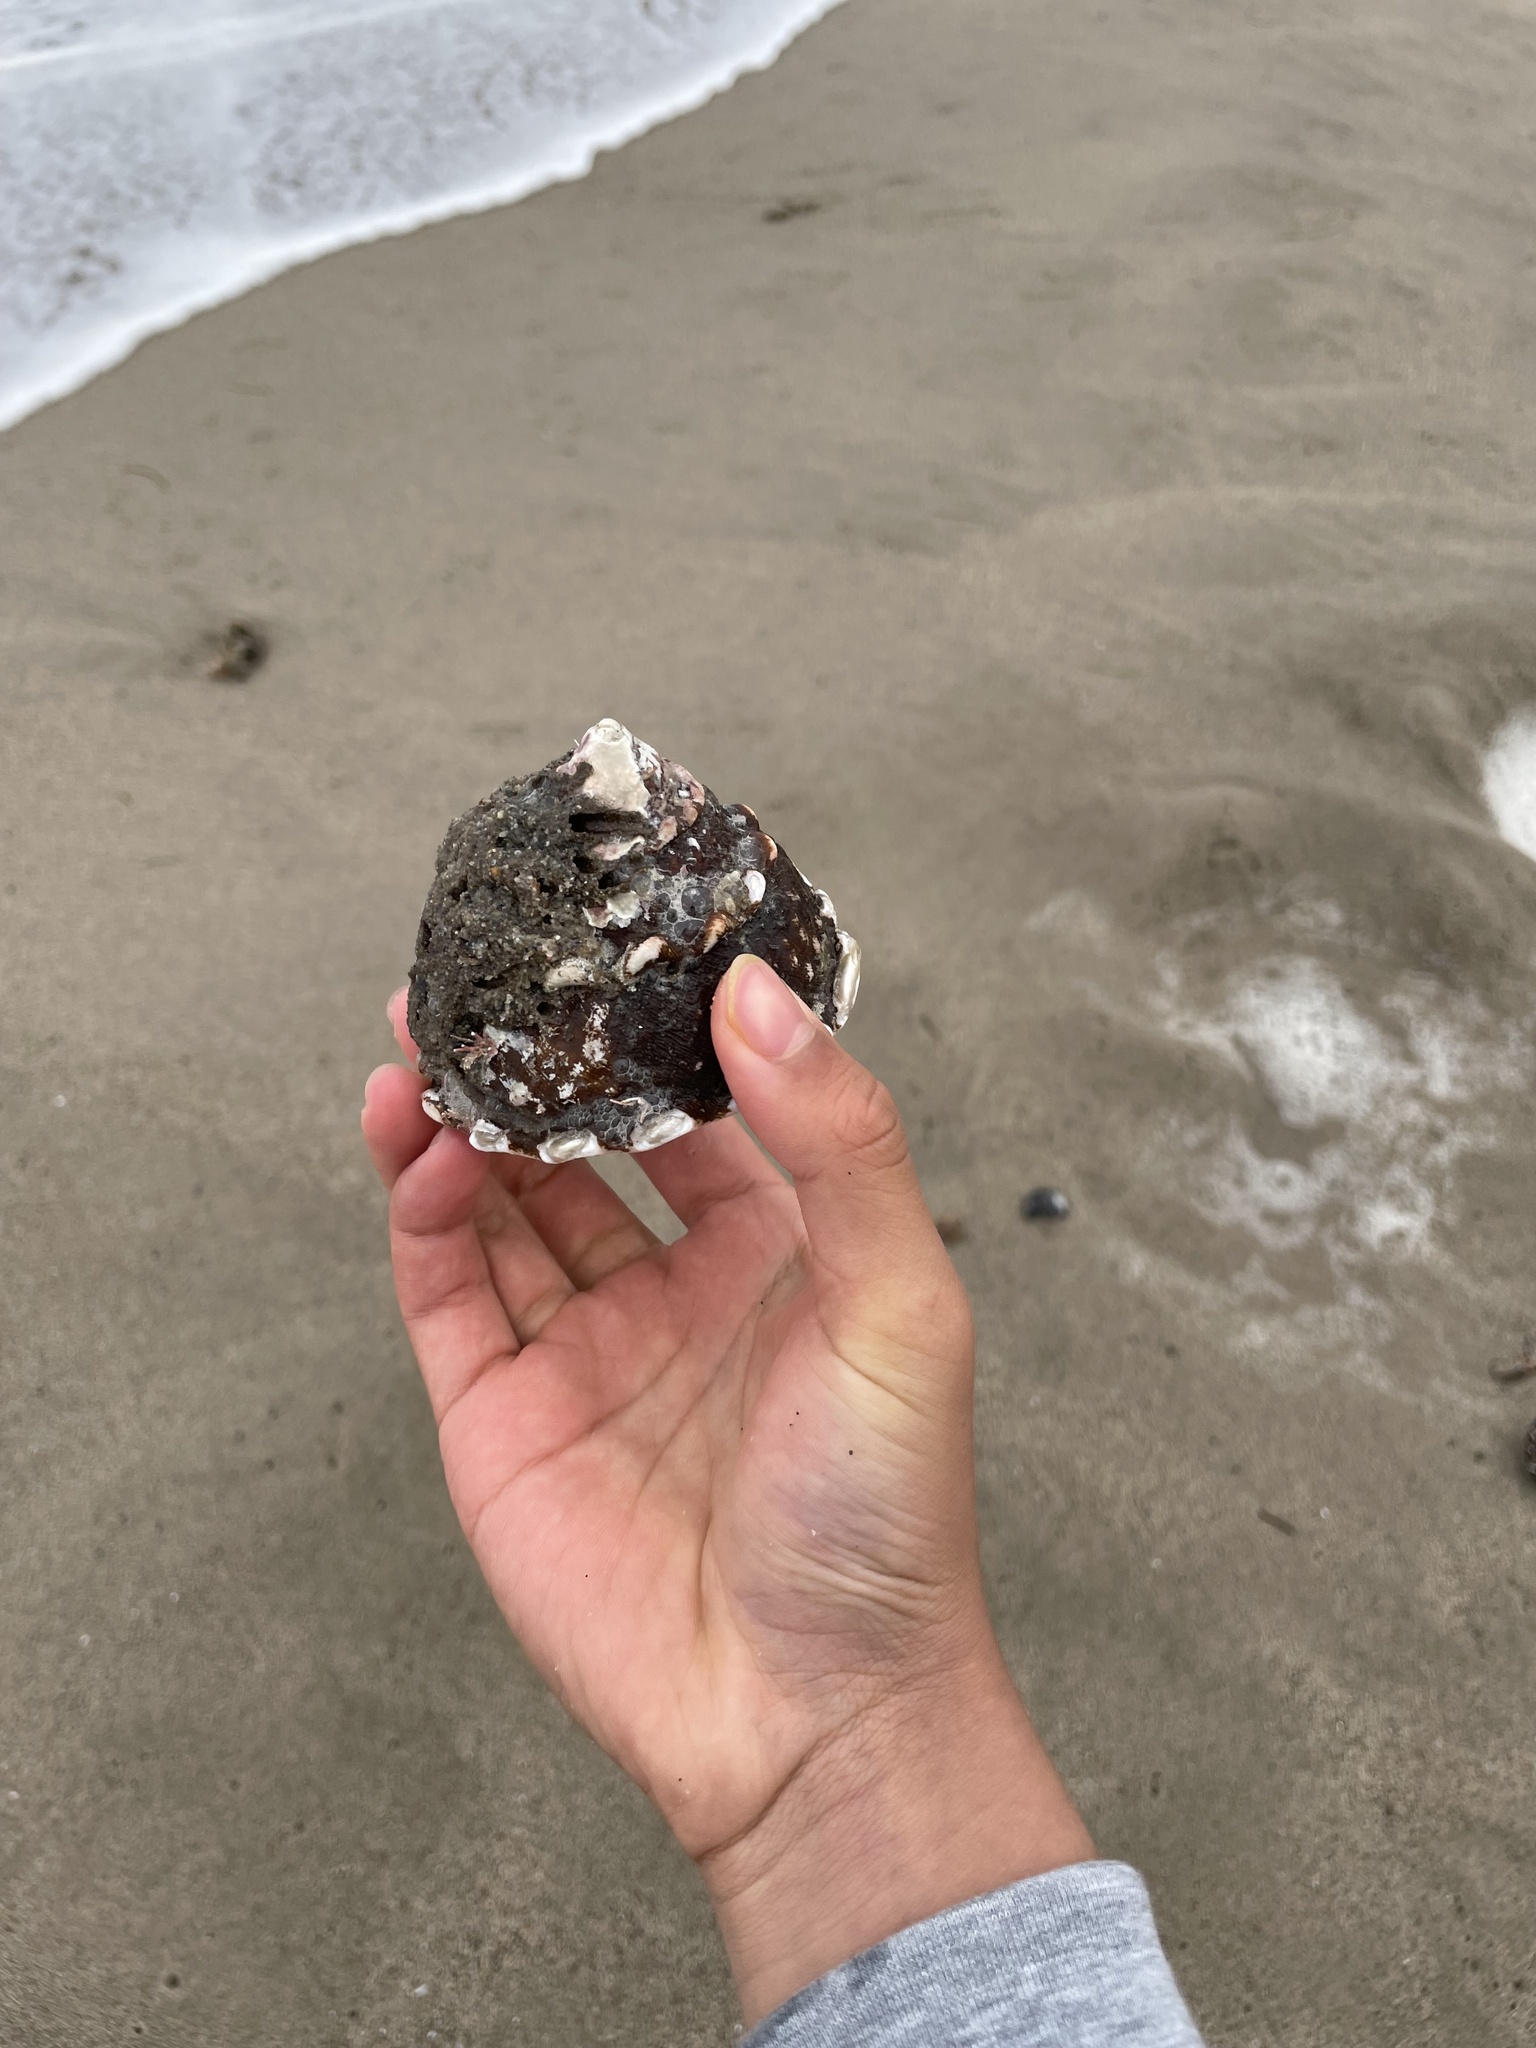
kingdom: Animalia
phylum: Mollusca
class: Gastropoda
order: Trochida
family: Turbinidae
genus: Megastraea
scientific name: Megastraea undosa
